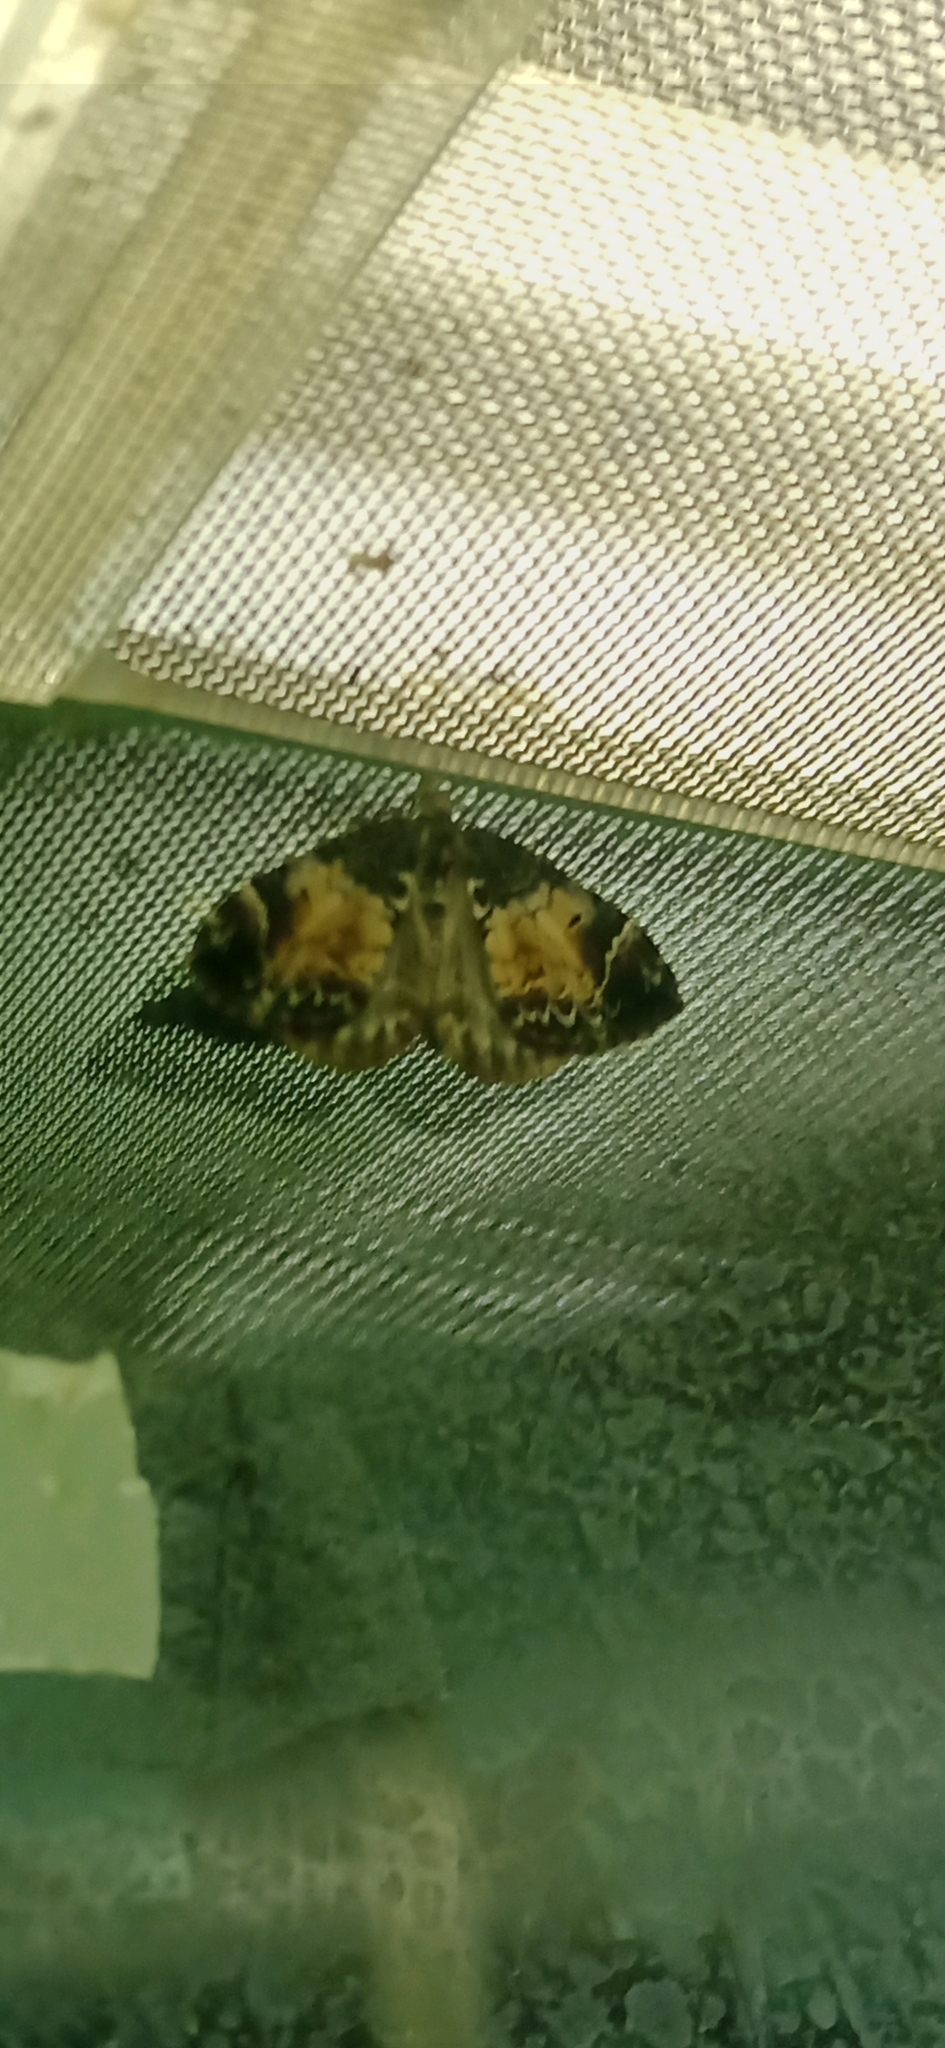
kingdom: Animalia
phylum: Arthropoda
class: Insecta
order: Lepidoptera
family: Geometridae
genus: Dysstroma
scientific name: Dysstroma truncata
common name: Common marbled carpet
